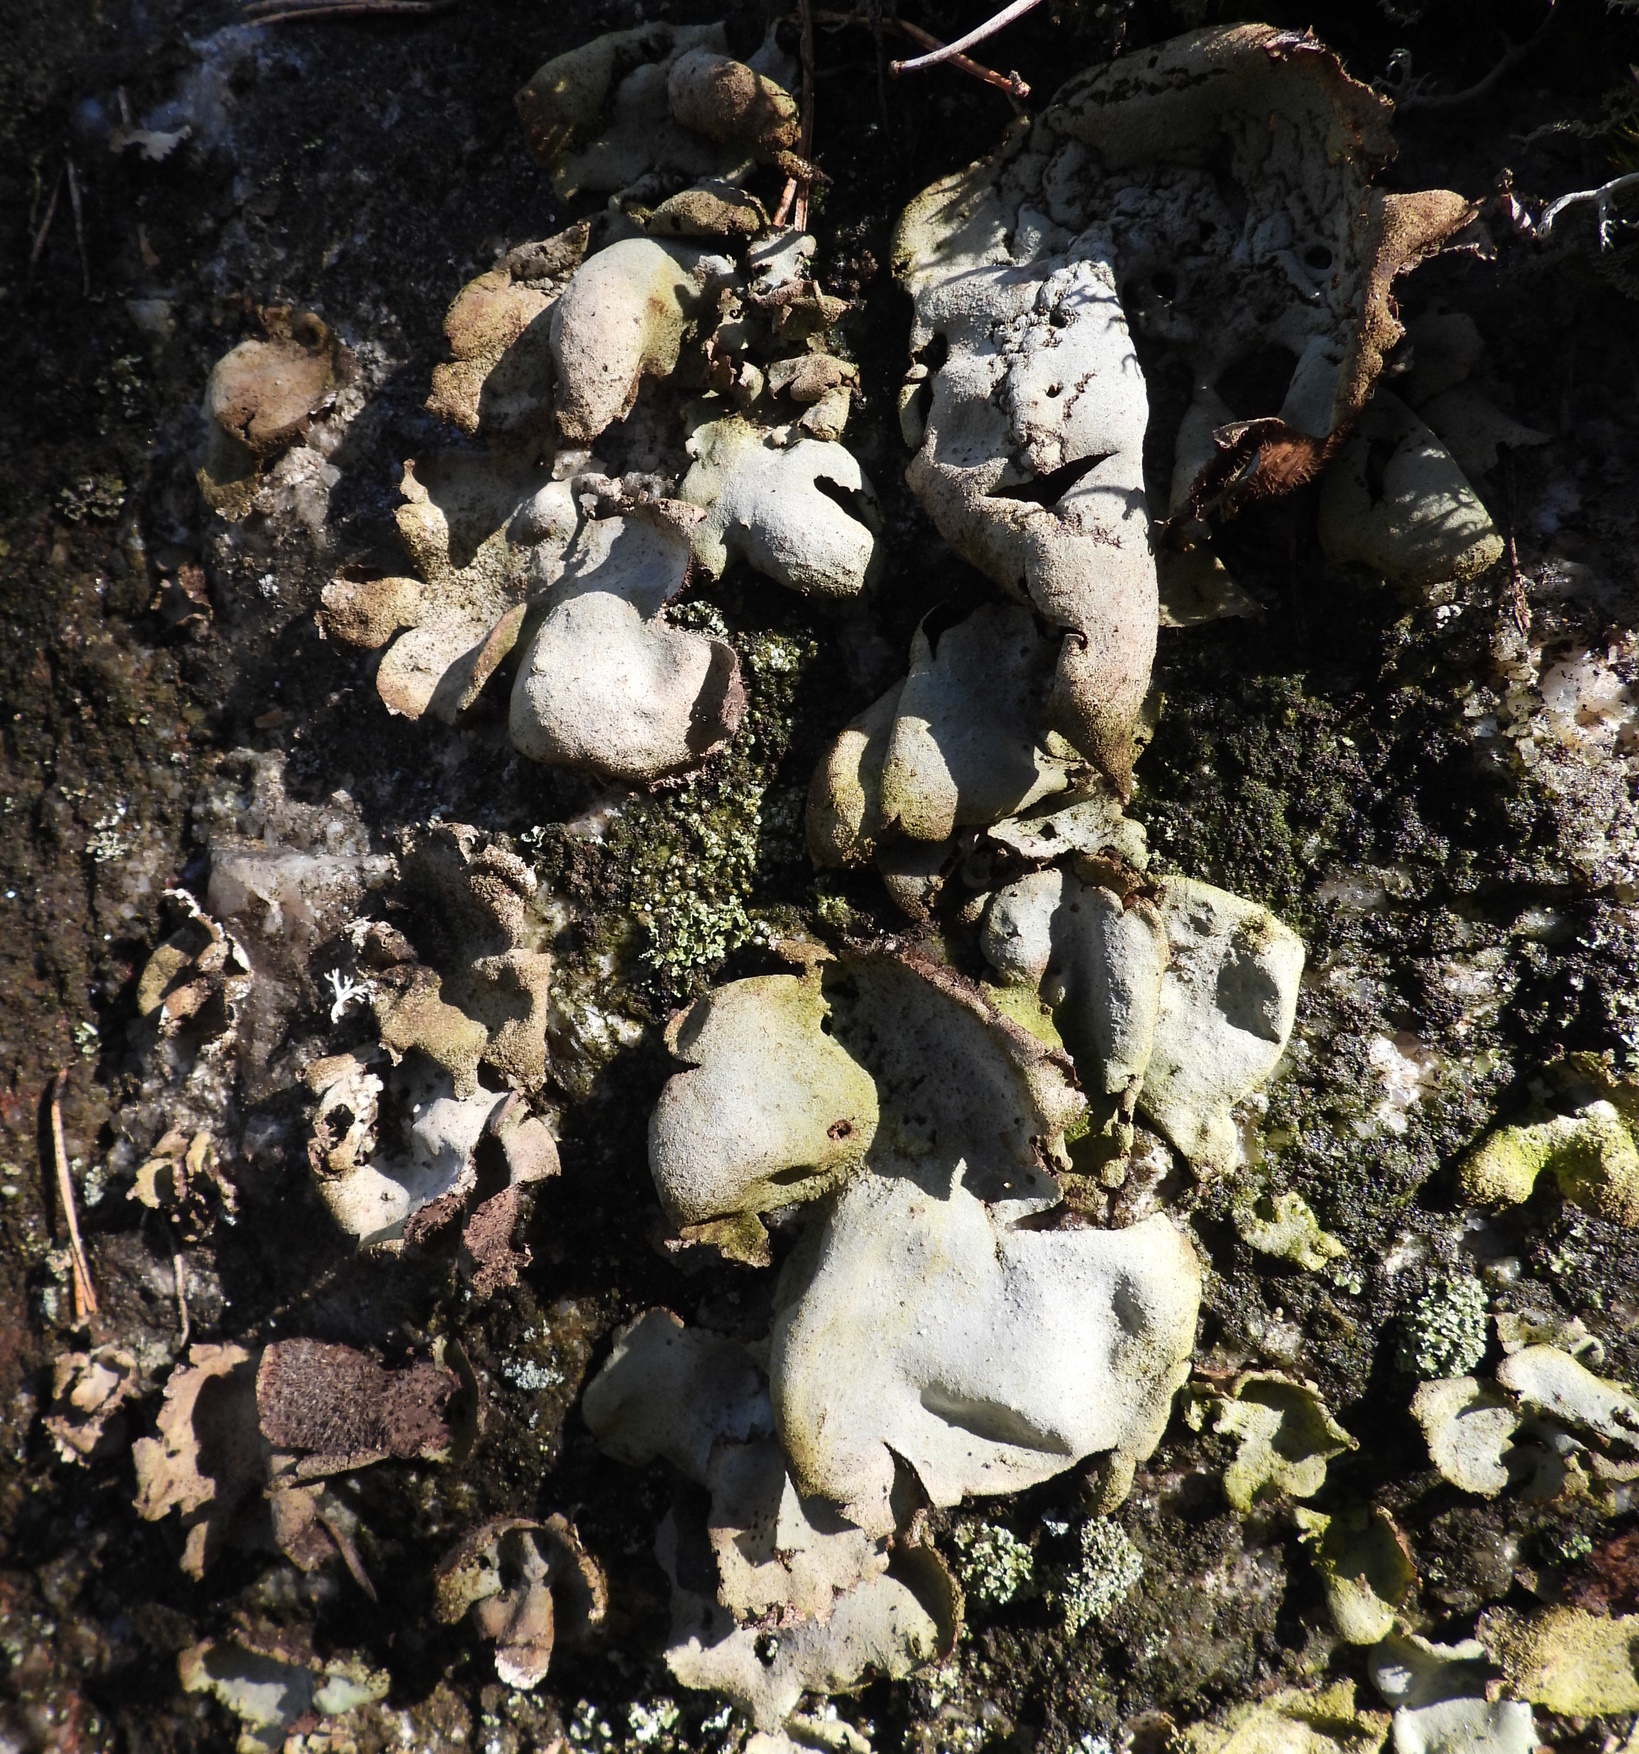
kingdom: Fungi
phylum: Ascomycota
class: Lecanoromycetes
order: Umbilicariales
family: Umbilicariaceae
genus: Umbilicaria
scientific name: Umbilicaria hirsuta
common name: Granulating rocktripe lichen
